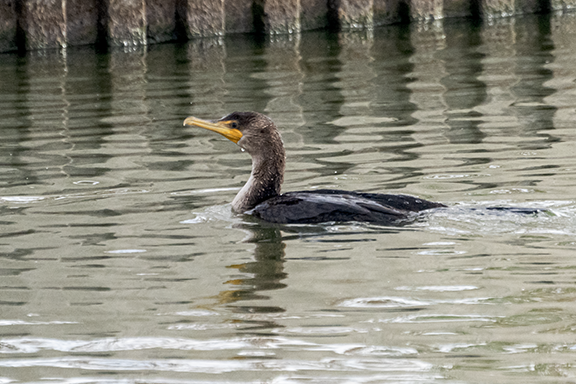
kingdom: Animalia
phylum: Chordata
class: Aves
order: Suliformes
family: Phalacrocoracidae
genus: Phalacrocorax
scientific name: Phalacrocorax auritus
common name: Double-crested cormorant
